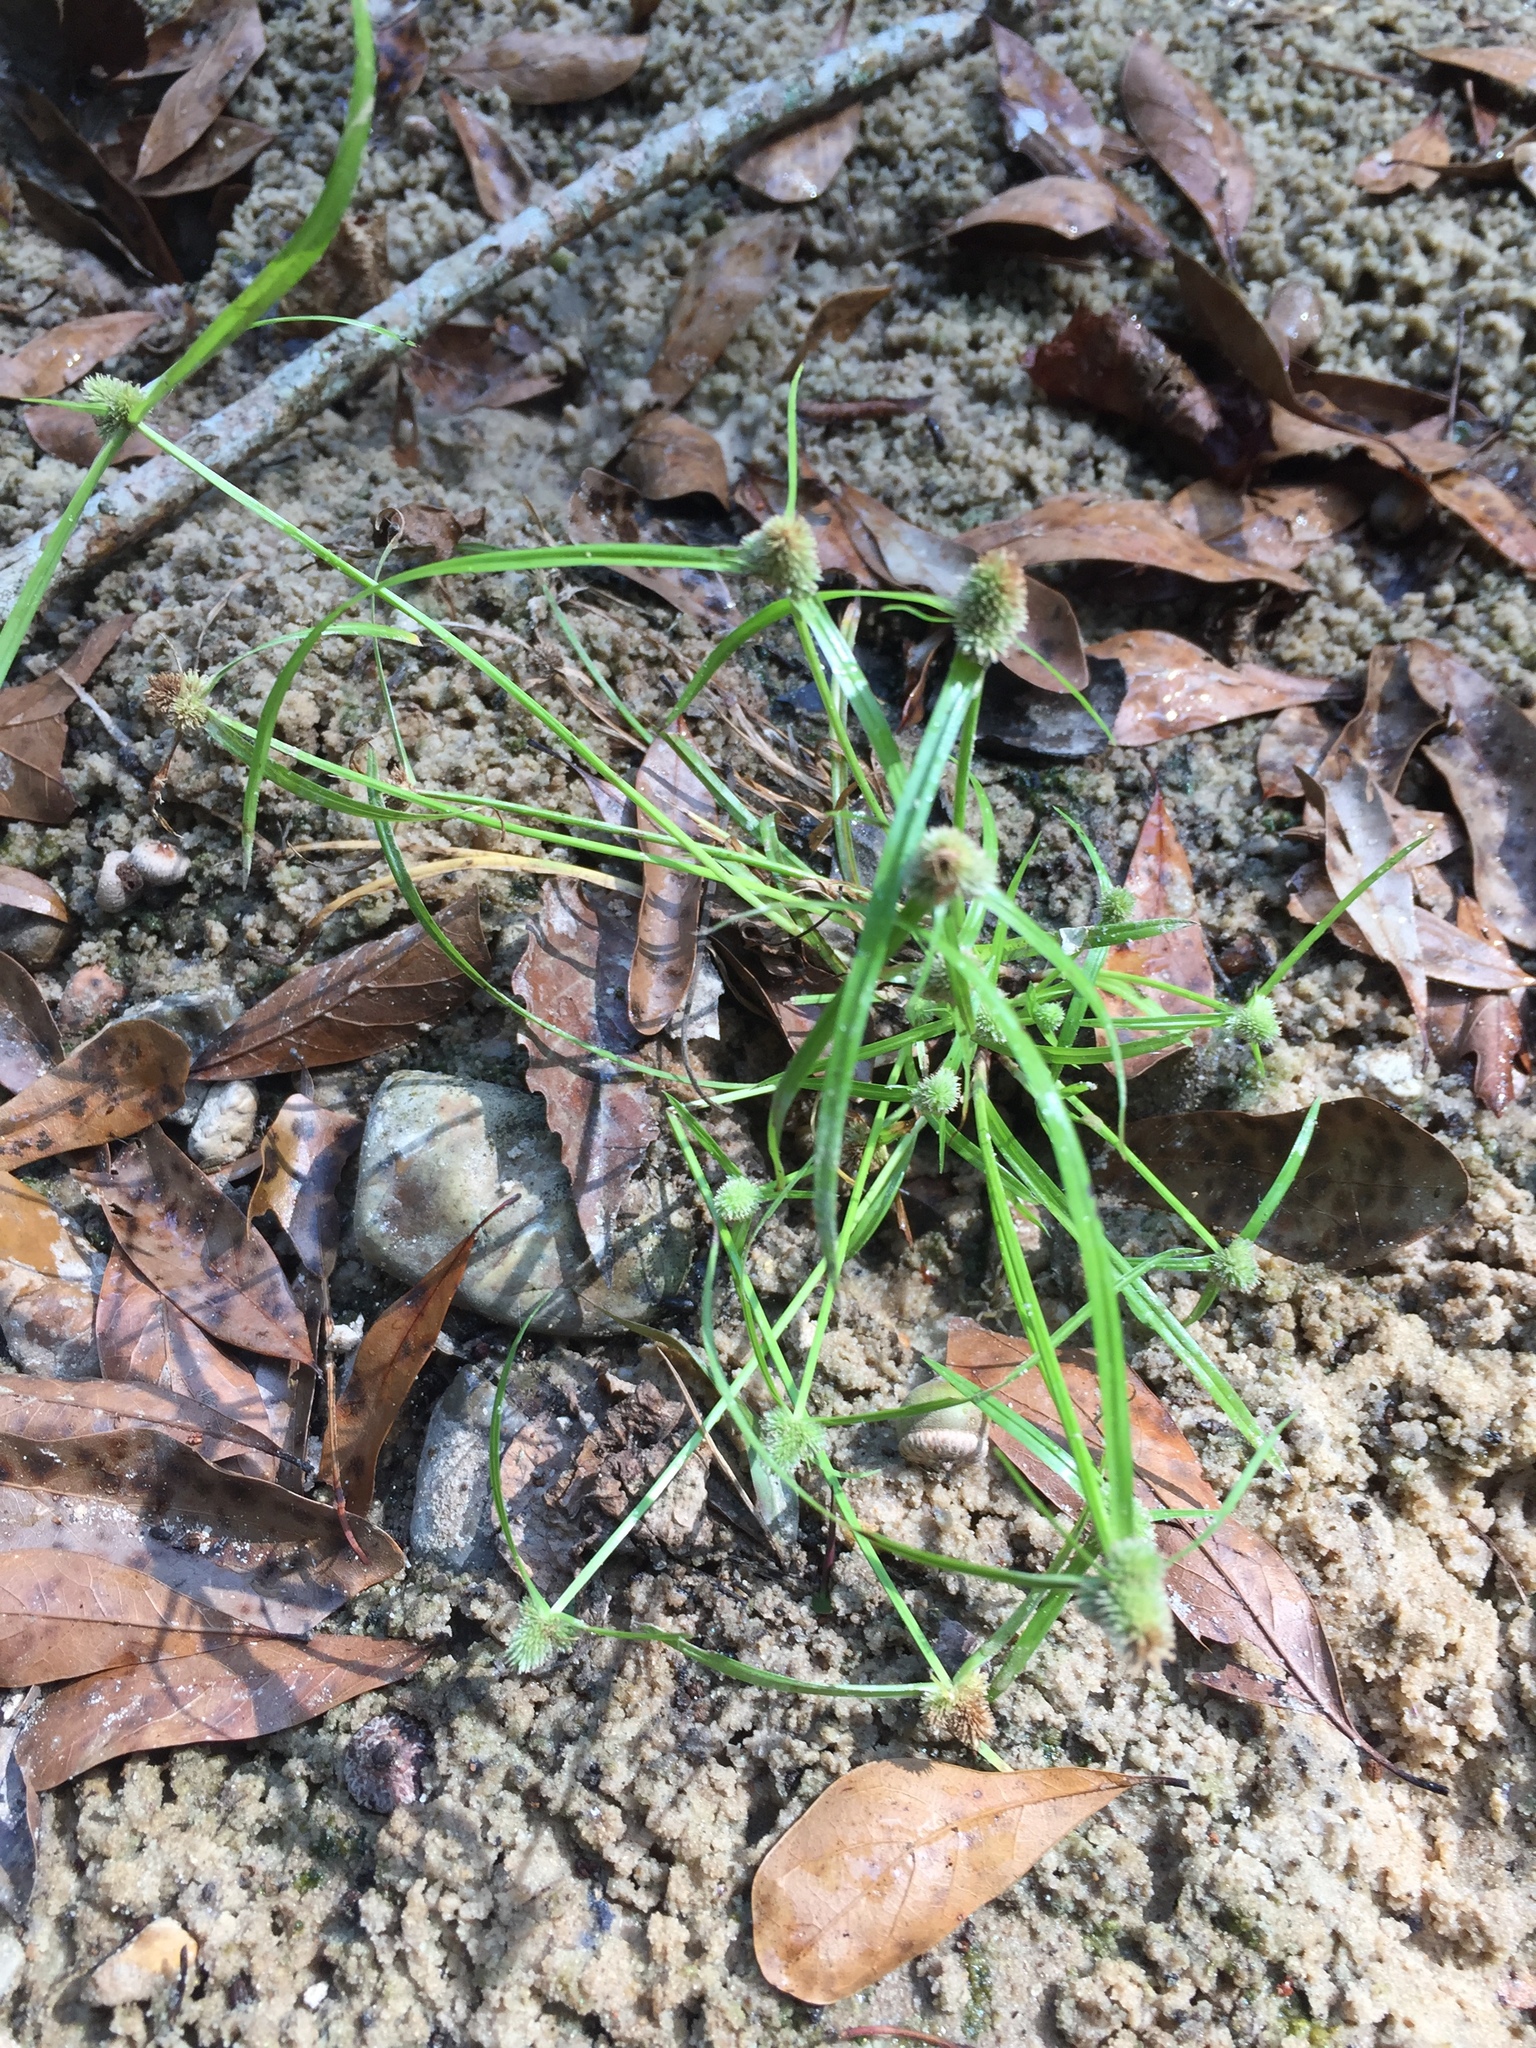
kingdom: Plantae
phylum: Tracheophyta
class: Liliopsida
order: Poales
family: Cyperaceae
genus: Cyperus
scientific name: Cyperus hortensis
